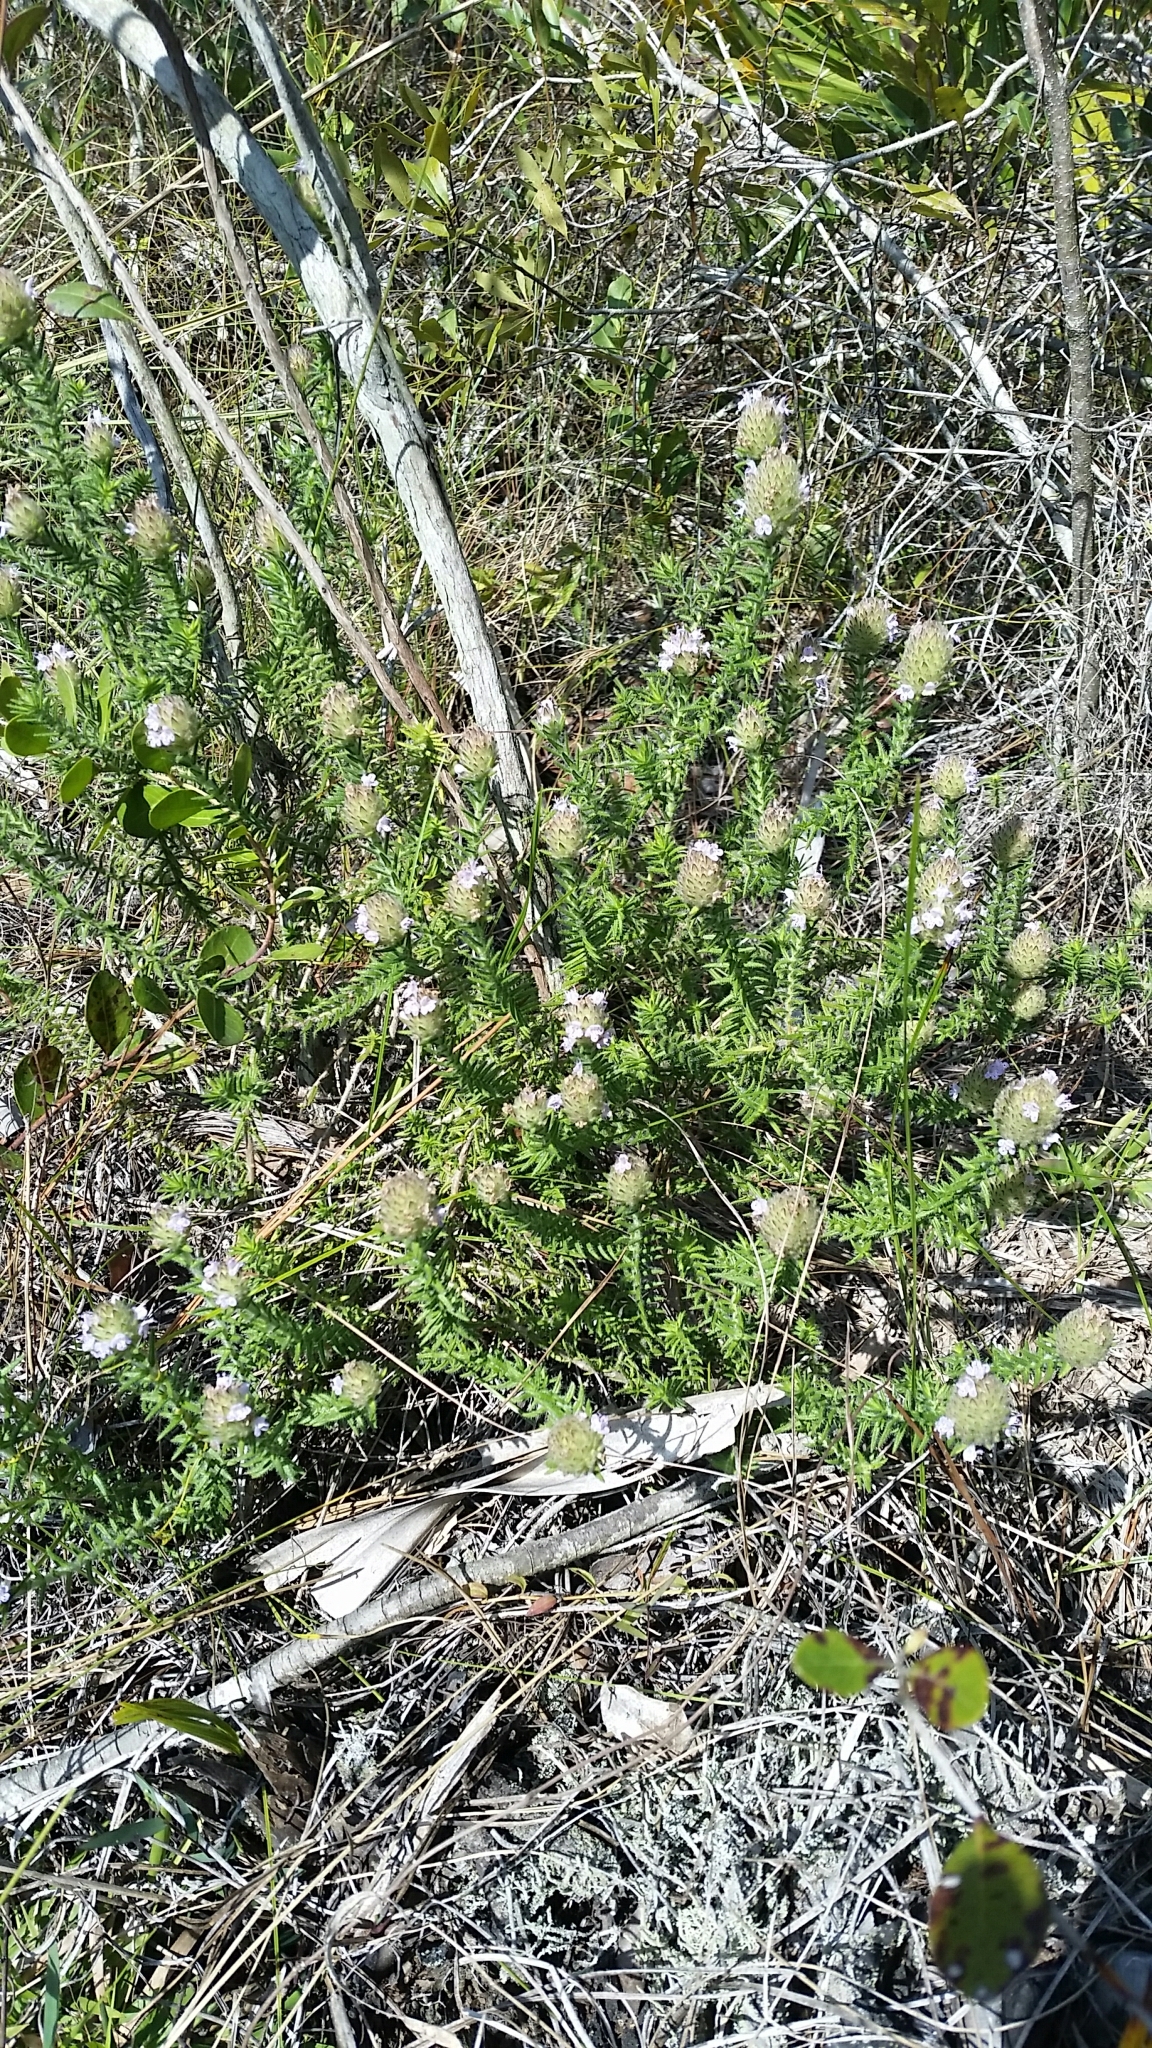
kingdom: Plantae
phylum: Tracheophyta
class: Magnoliopsida
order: Lamiales
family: Lamiaceae
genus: Piloblephis
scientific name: Piloblephis rigida
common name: Wild pennyroyal
